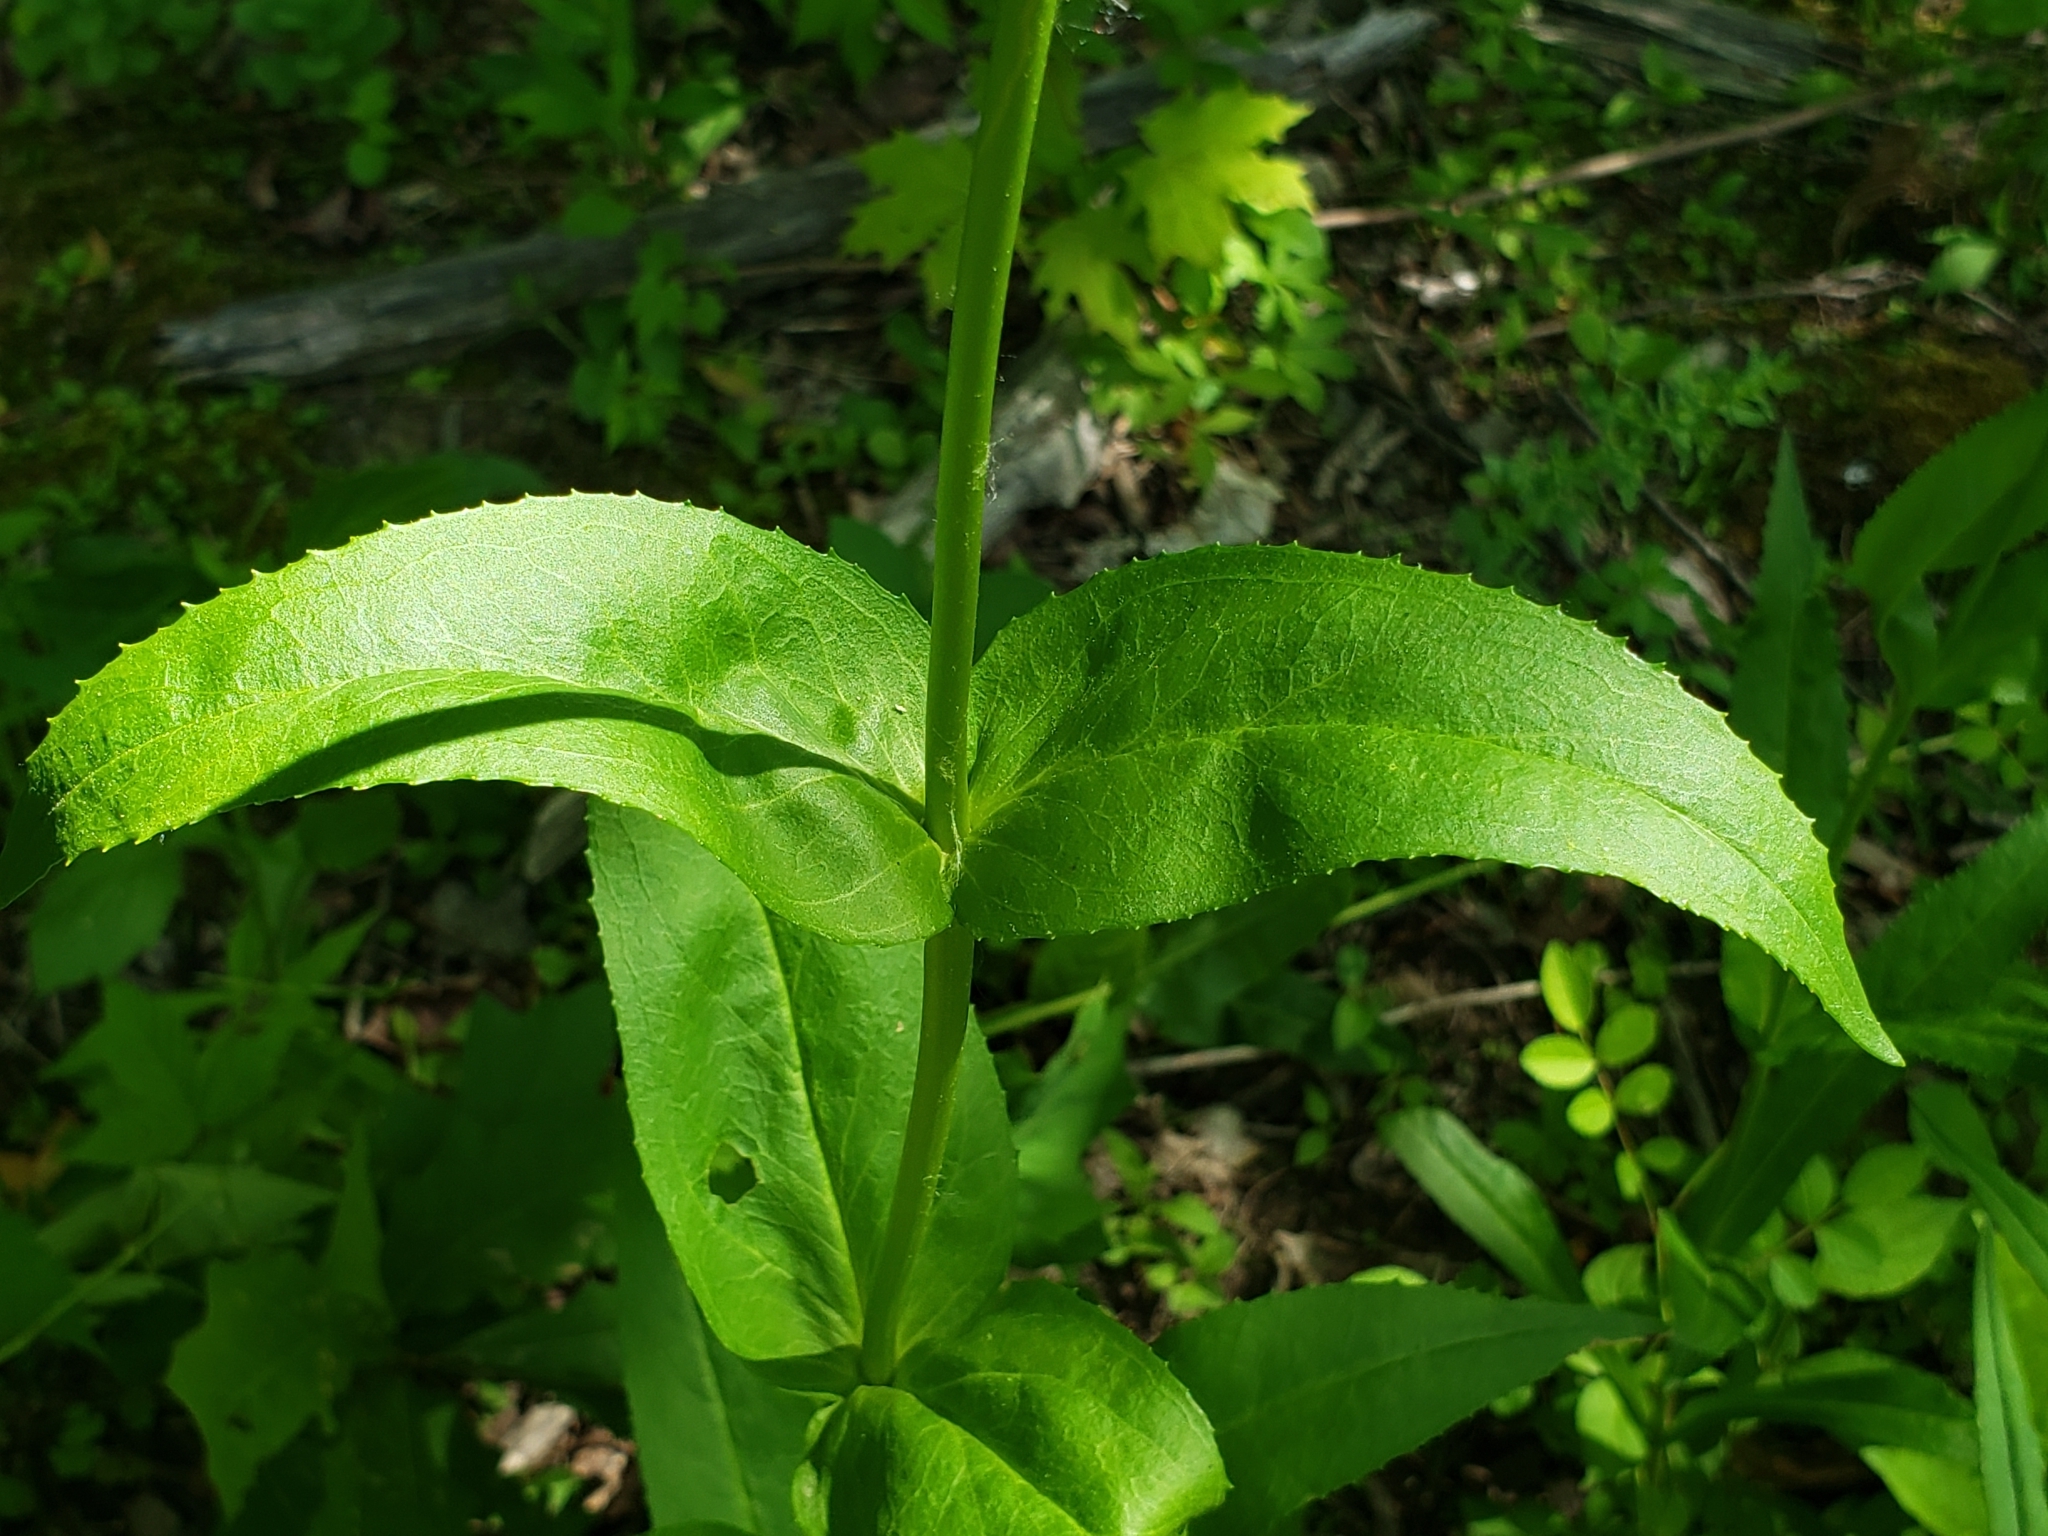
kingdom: Plantae
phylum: Tracheophyta
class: Magnoliopsida
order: Lamiales
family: Plantaginaceae
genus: Penstemon
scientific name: Penstemon digitalis
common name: Foxglove beardtongue
